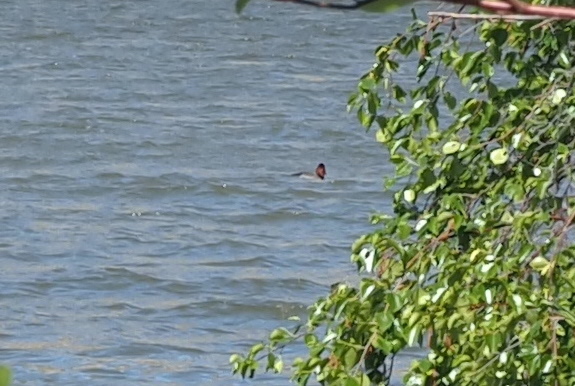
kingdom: Animalia
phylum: Chordata
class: Aves
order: Anseriformes
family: Anatidae
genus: Aythya
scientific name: Aythya americana
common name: Redhead
